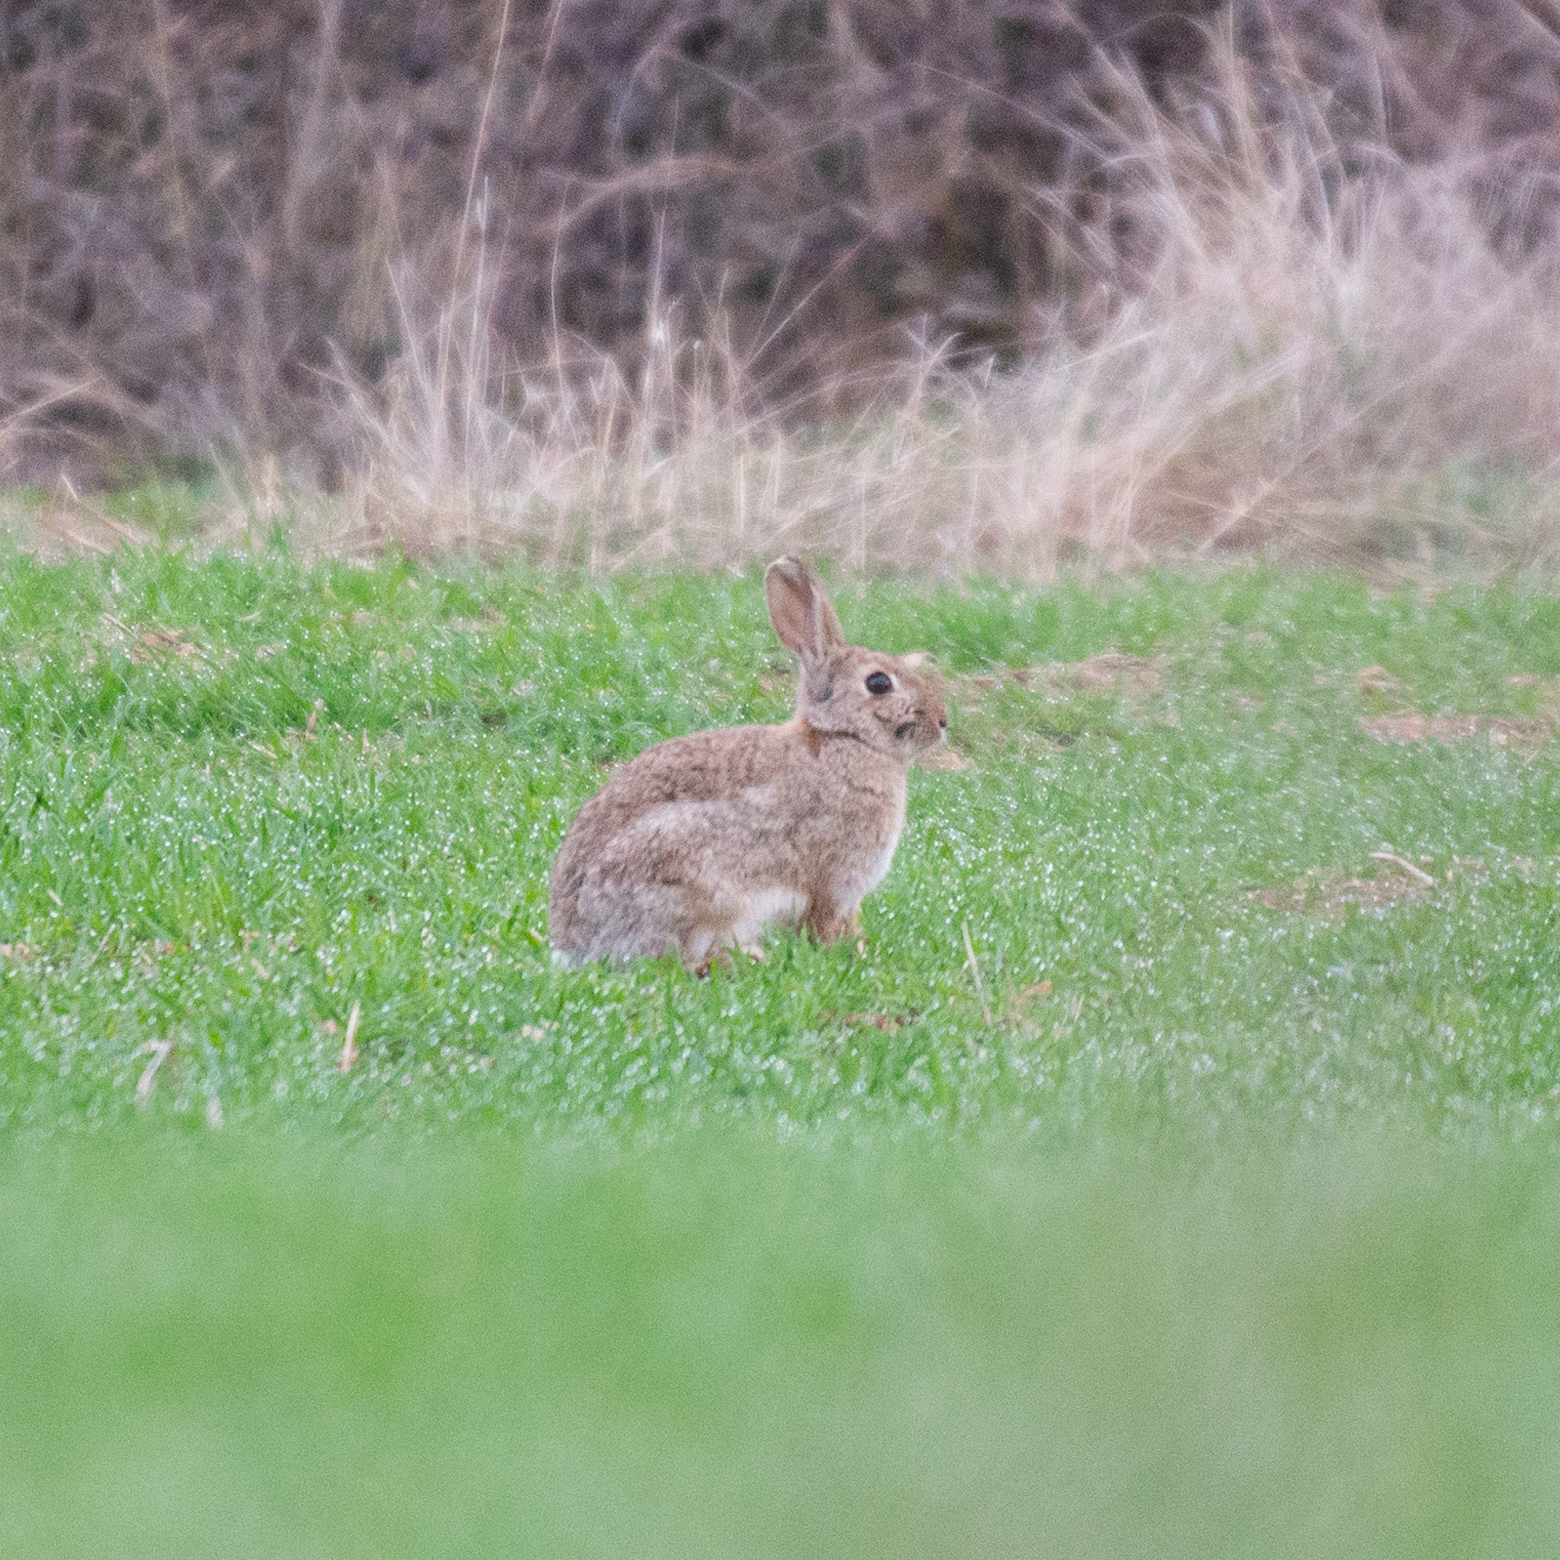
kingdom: Animalia
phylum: Chordata
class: Mammalia
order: Lagomorpha
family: Leporidae
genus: Oryctolagus
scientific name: Oryctolagus cuniculus
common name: European rabbit
